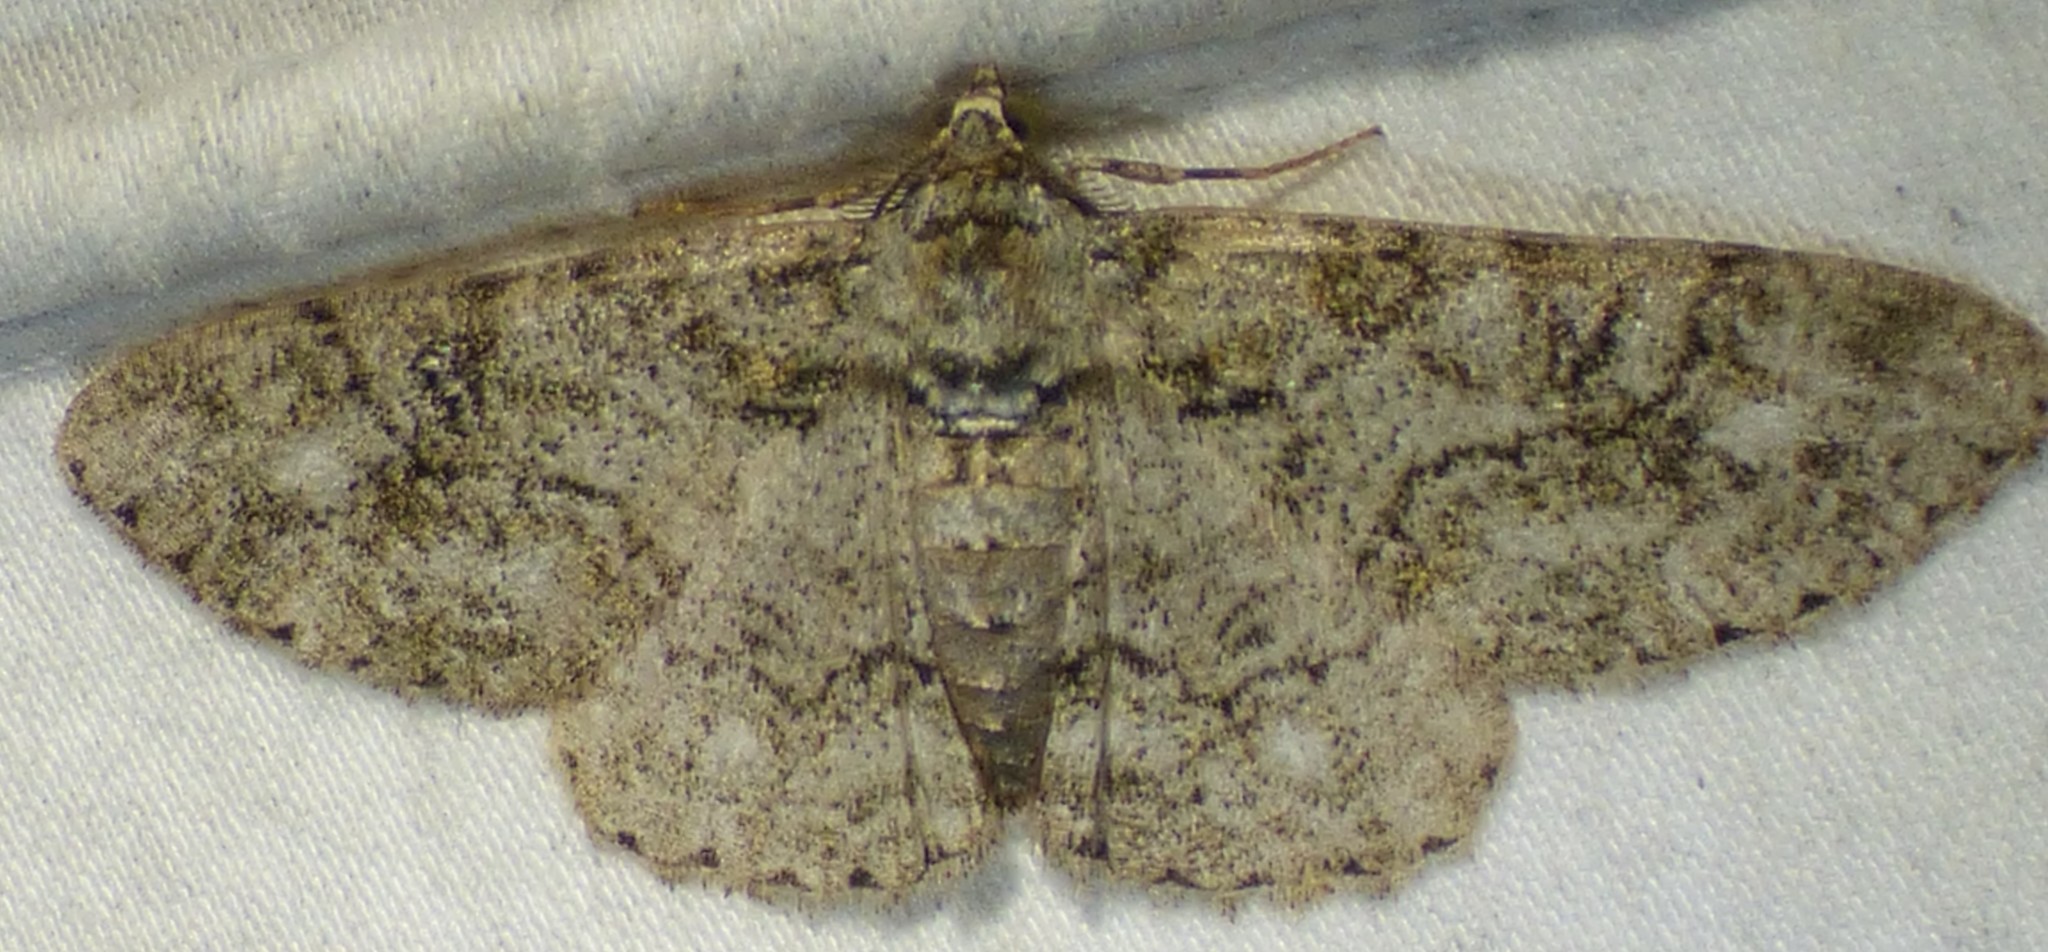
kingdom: Animalia
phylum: Arthropoda
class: Insecta
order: Lepidoptera
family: Geometridae
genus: Cleora
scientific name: Cleora sublunaria
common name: Double-lined gray
